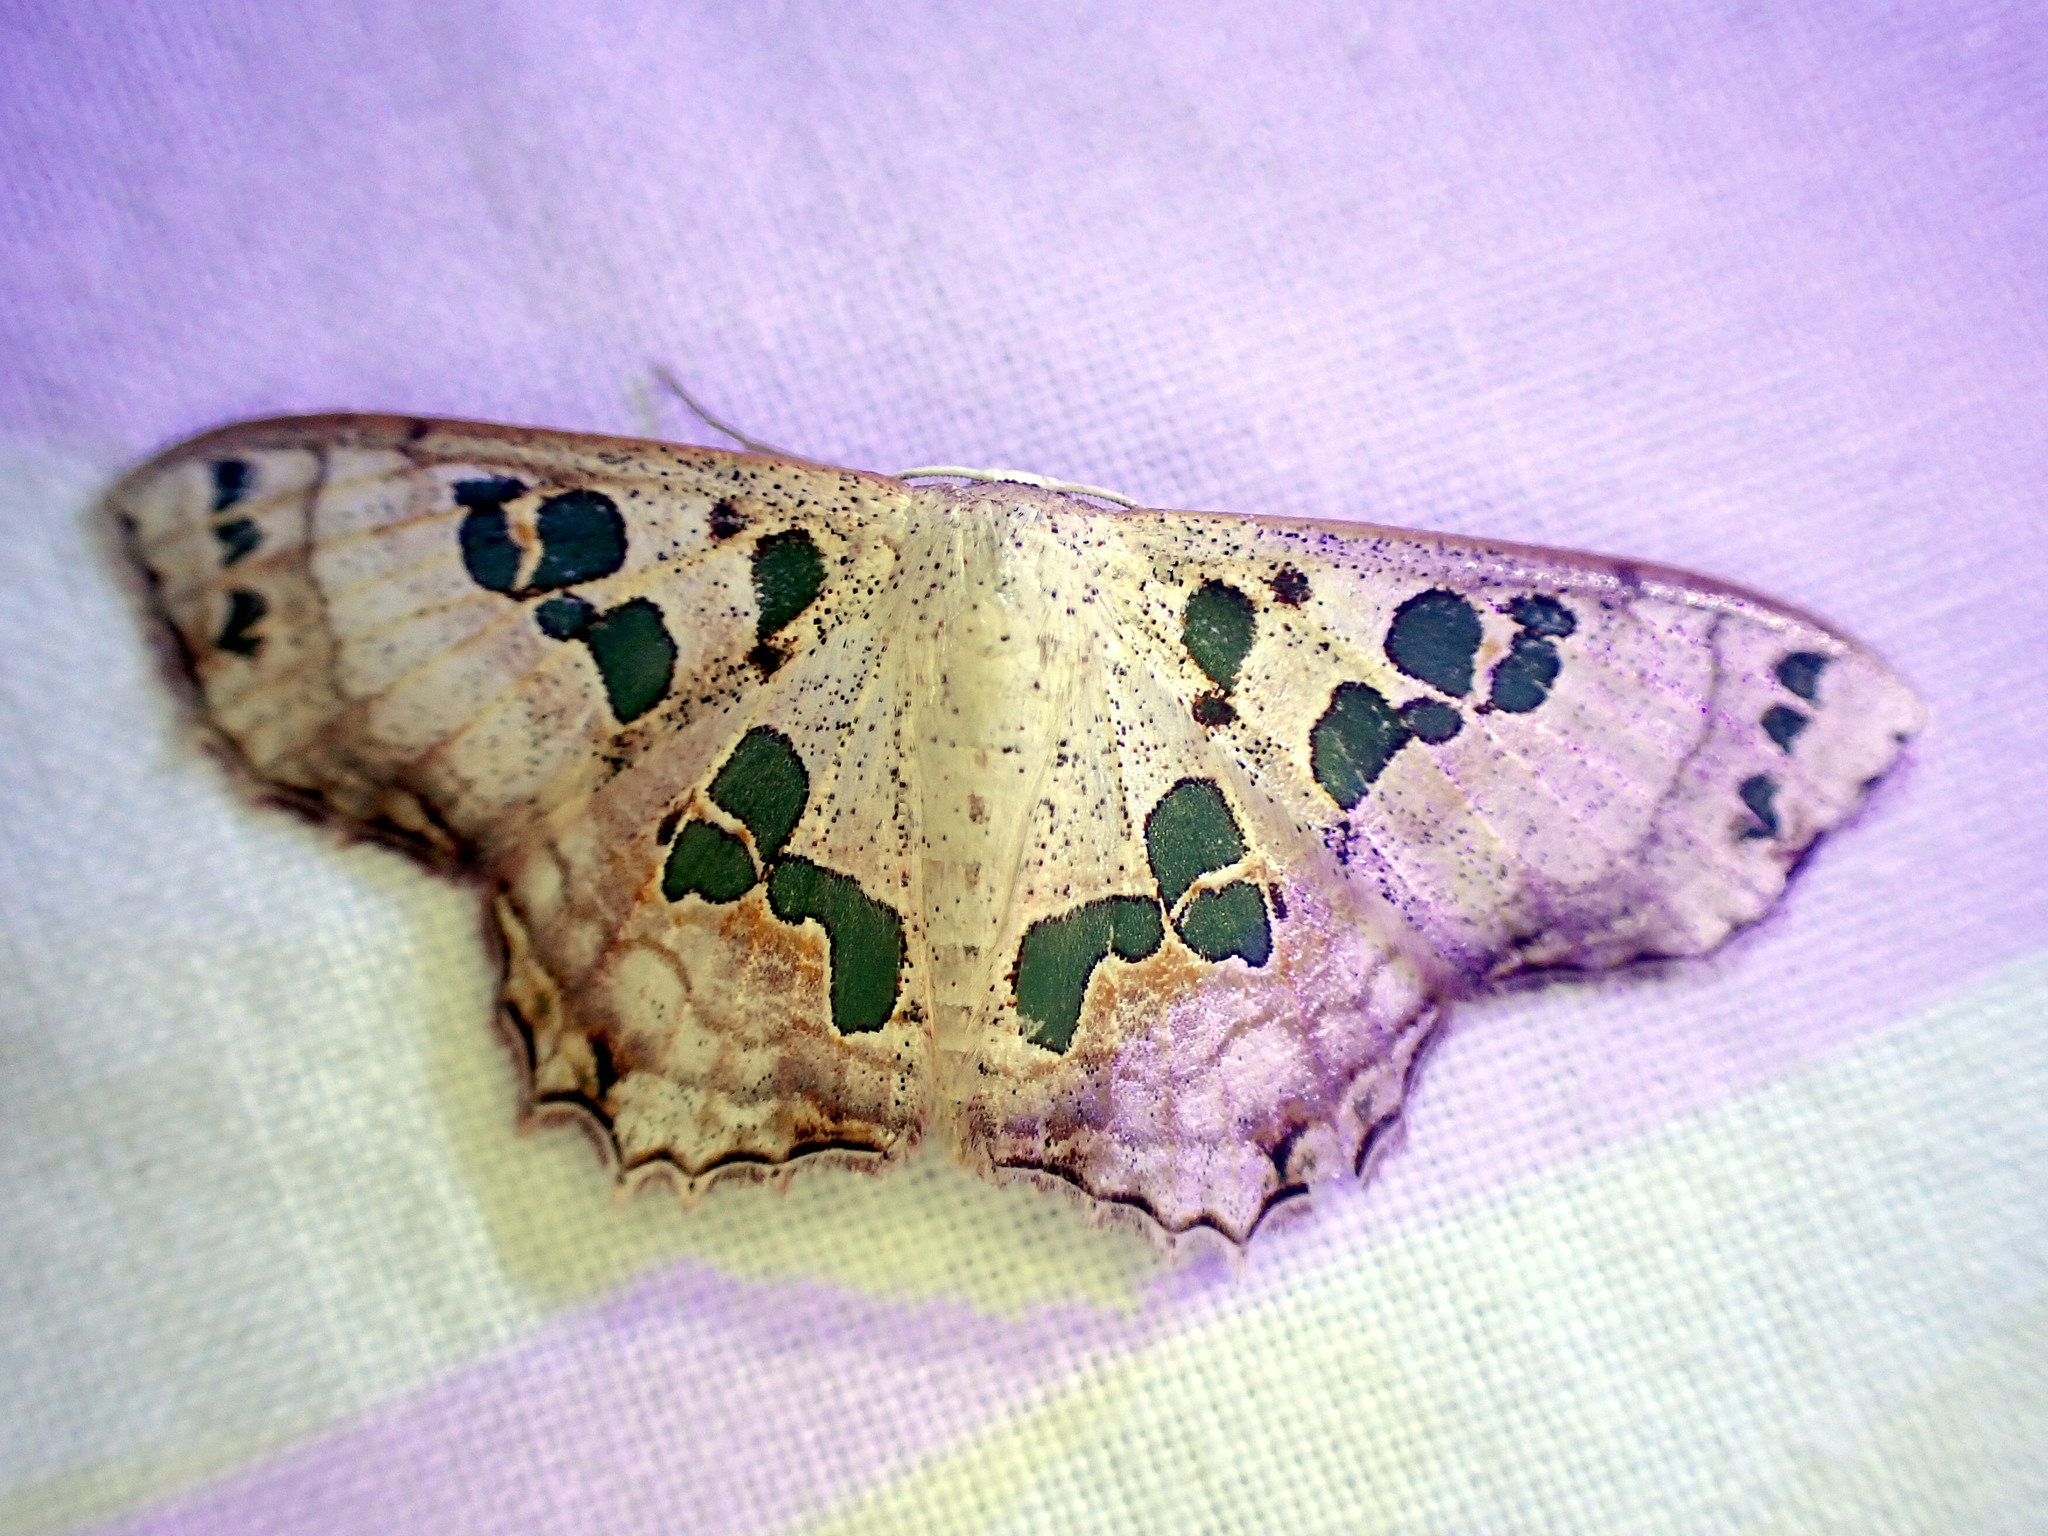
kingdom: Animalia
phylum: Arthropoda
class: Insecta
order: Lepidoptera
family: Geometridae
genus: Scopula
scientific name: Scopula parvimacula
